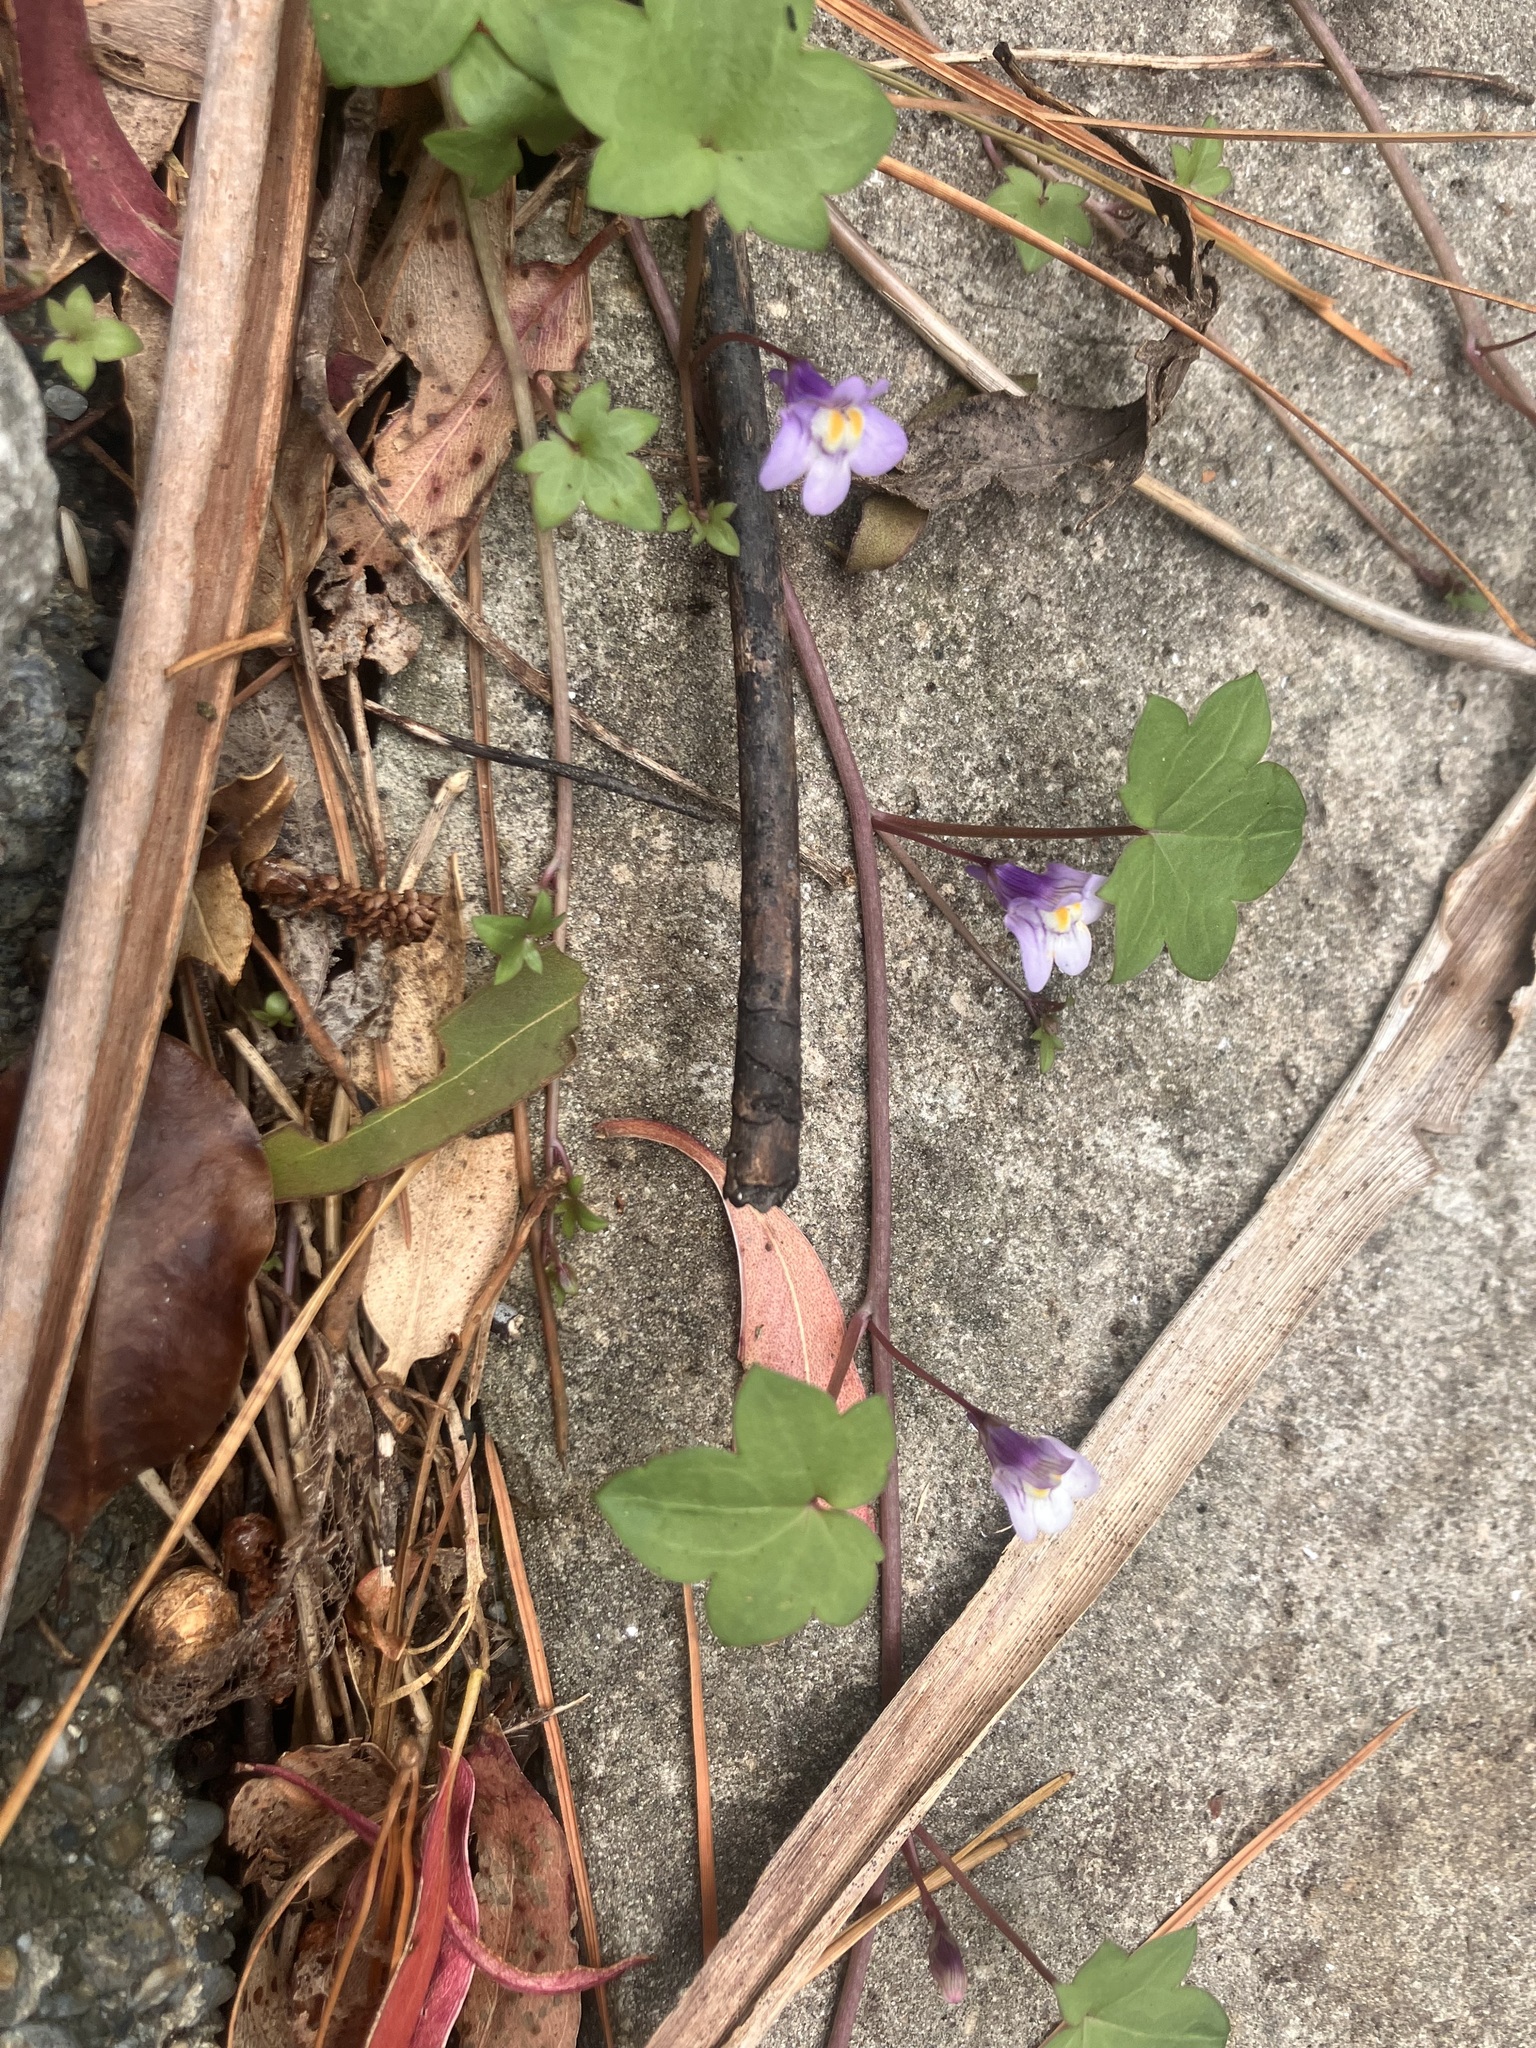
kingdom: Plantae
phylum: Tracheophyta
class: Magnoliopsida
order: Lamiales
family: Plantaginaceae
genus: Cymbalaria
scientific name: Cymbalaria muralis
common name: Ivy-leaved toadflax
